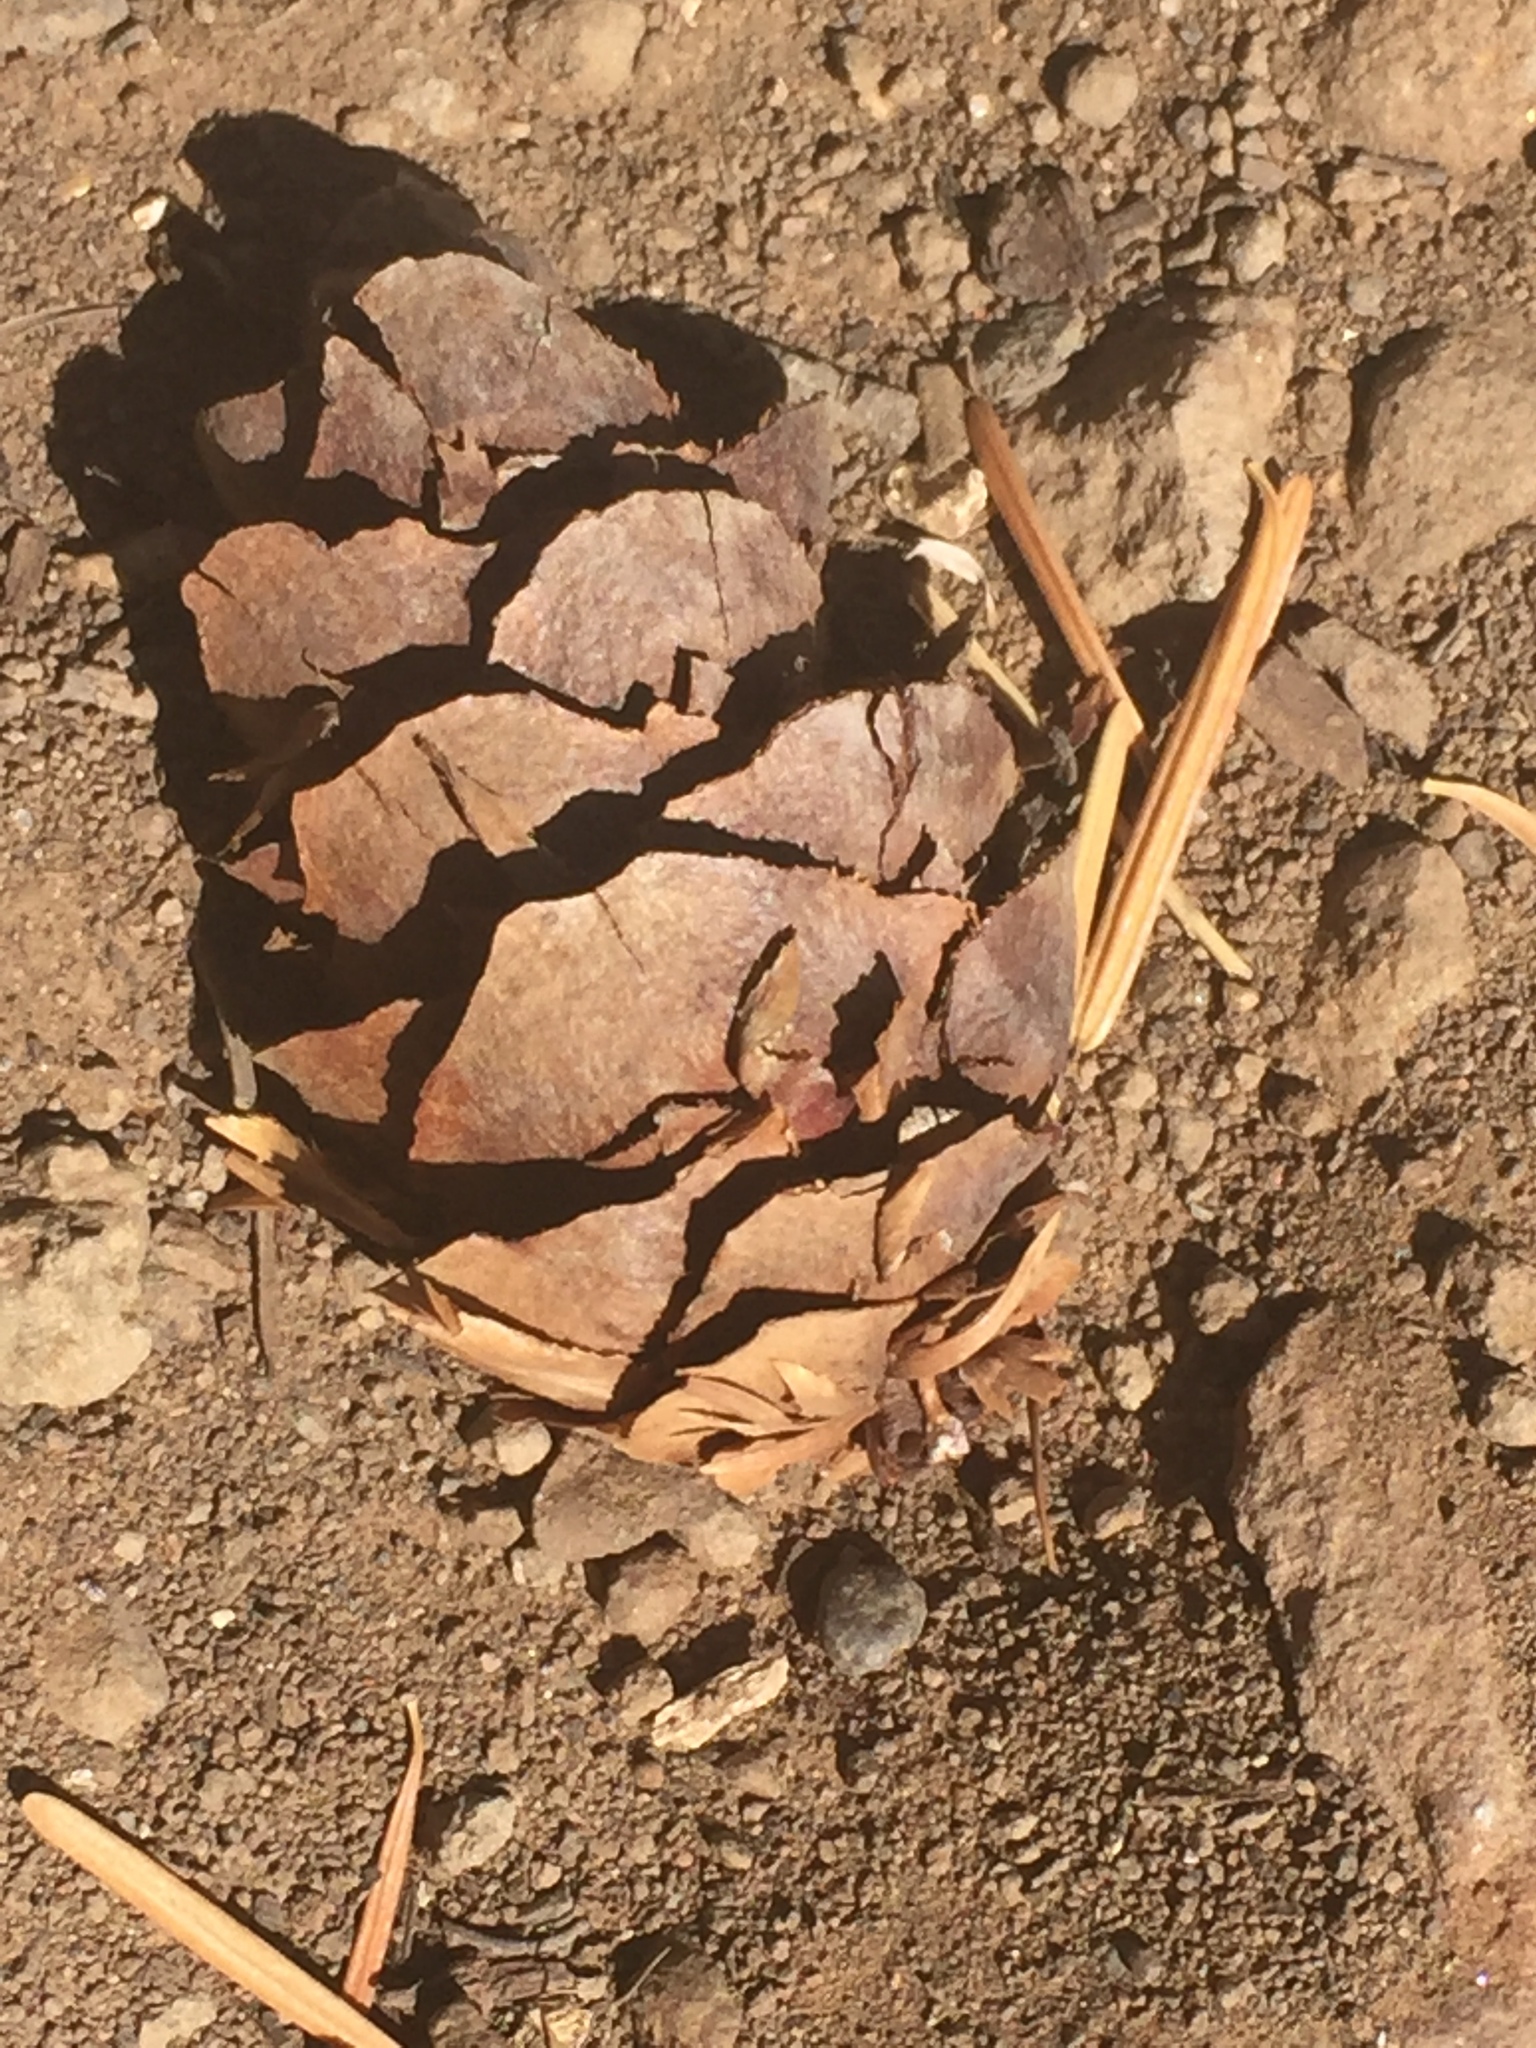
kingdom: Plantae
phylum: Tracheophyta
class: Pinopsida
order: Pinales
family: Pinaceae
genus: Pseudotsuga
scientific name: Pseudotsuga menziesii
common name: Douglas fir
